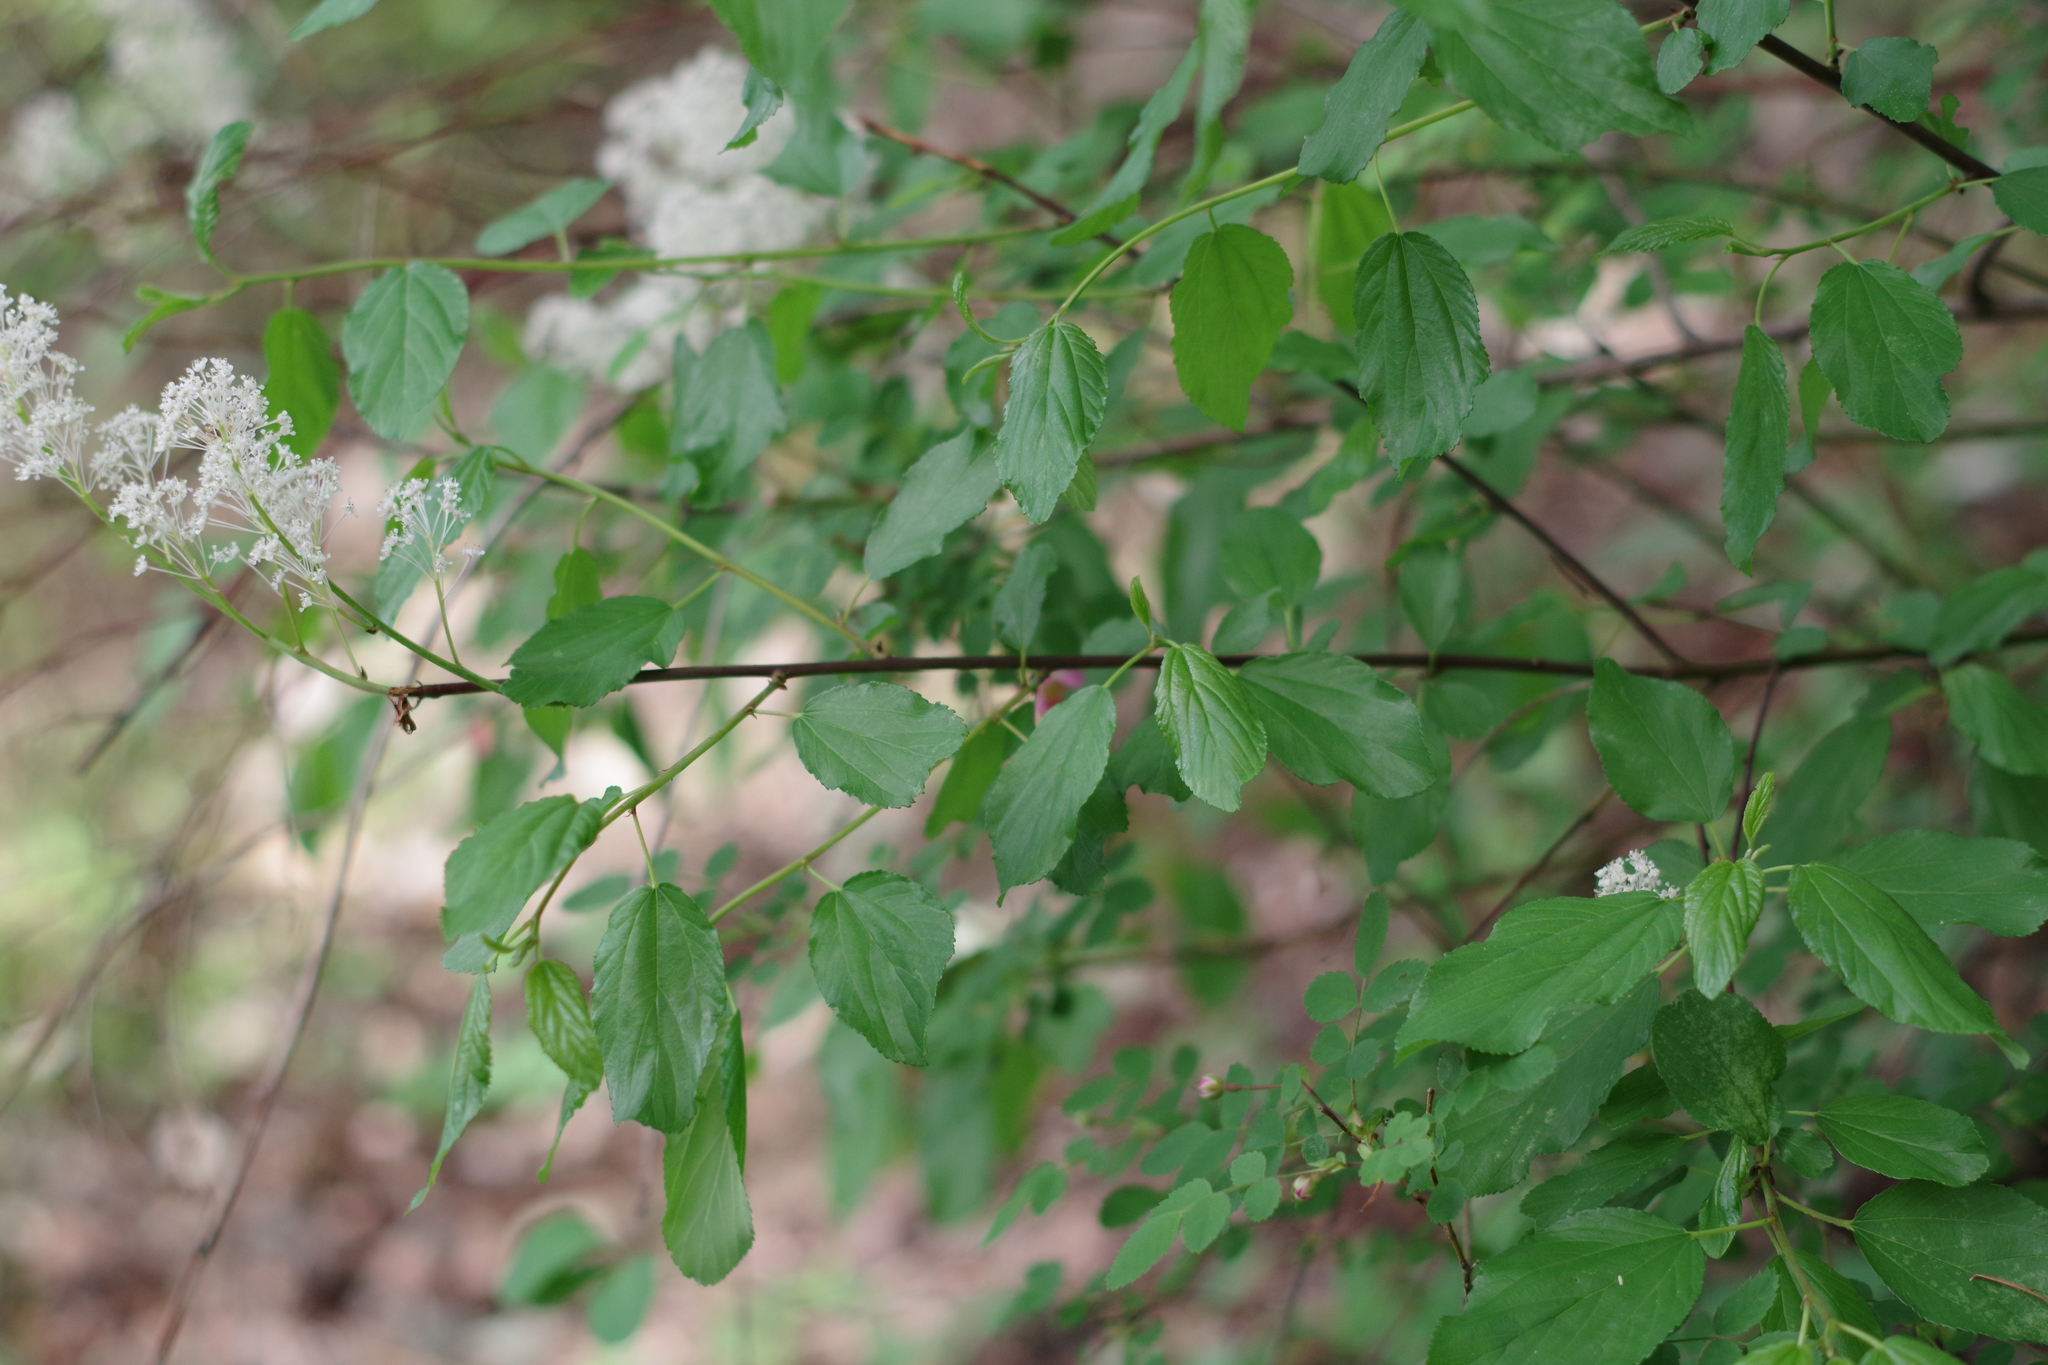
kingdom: Plantae
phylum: Tracheophyta
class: Magnoliopsida
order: Rosales
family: Rhamnaceae
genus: Ceanothus
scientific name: Ceanothus sanguineus
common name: Teatree
